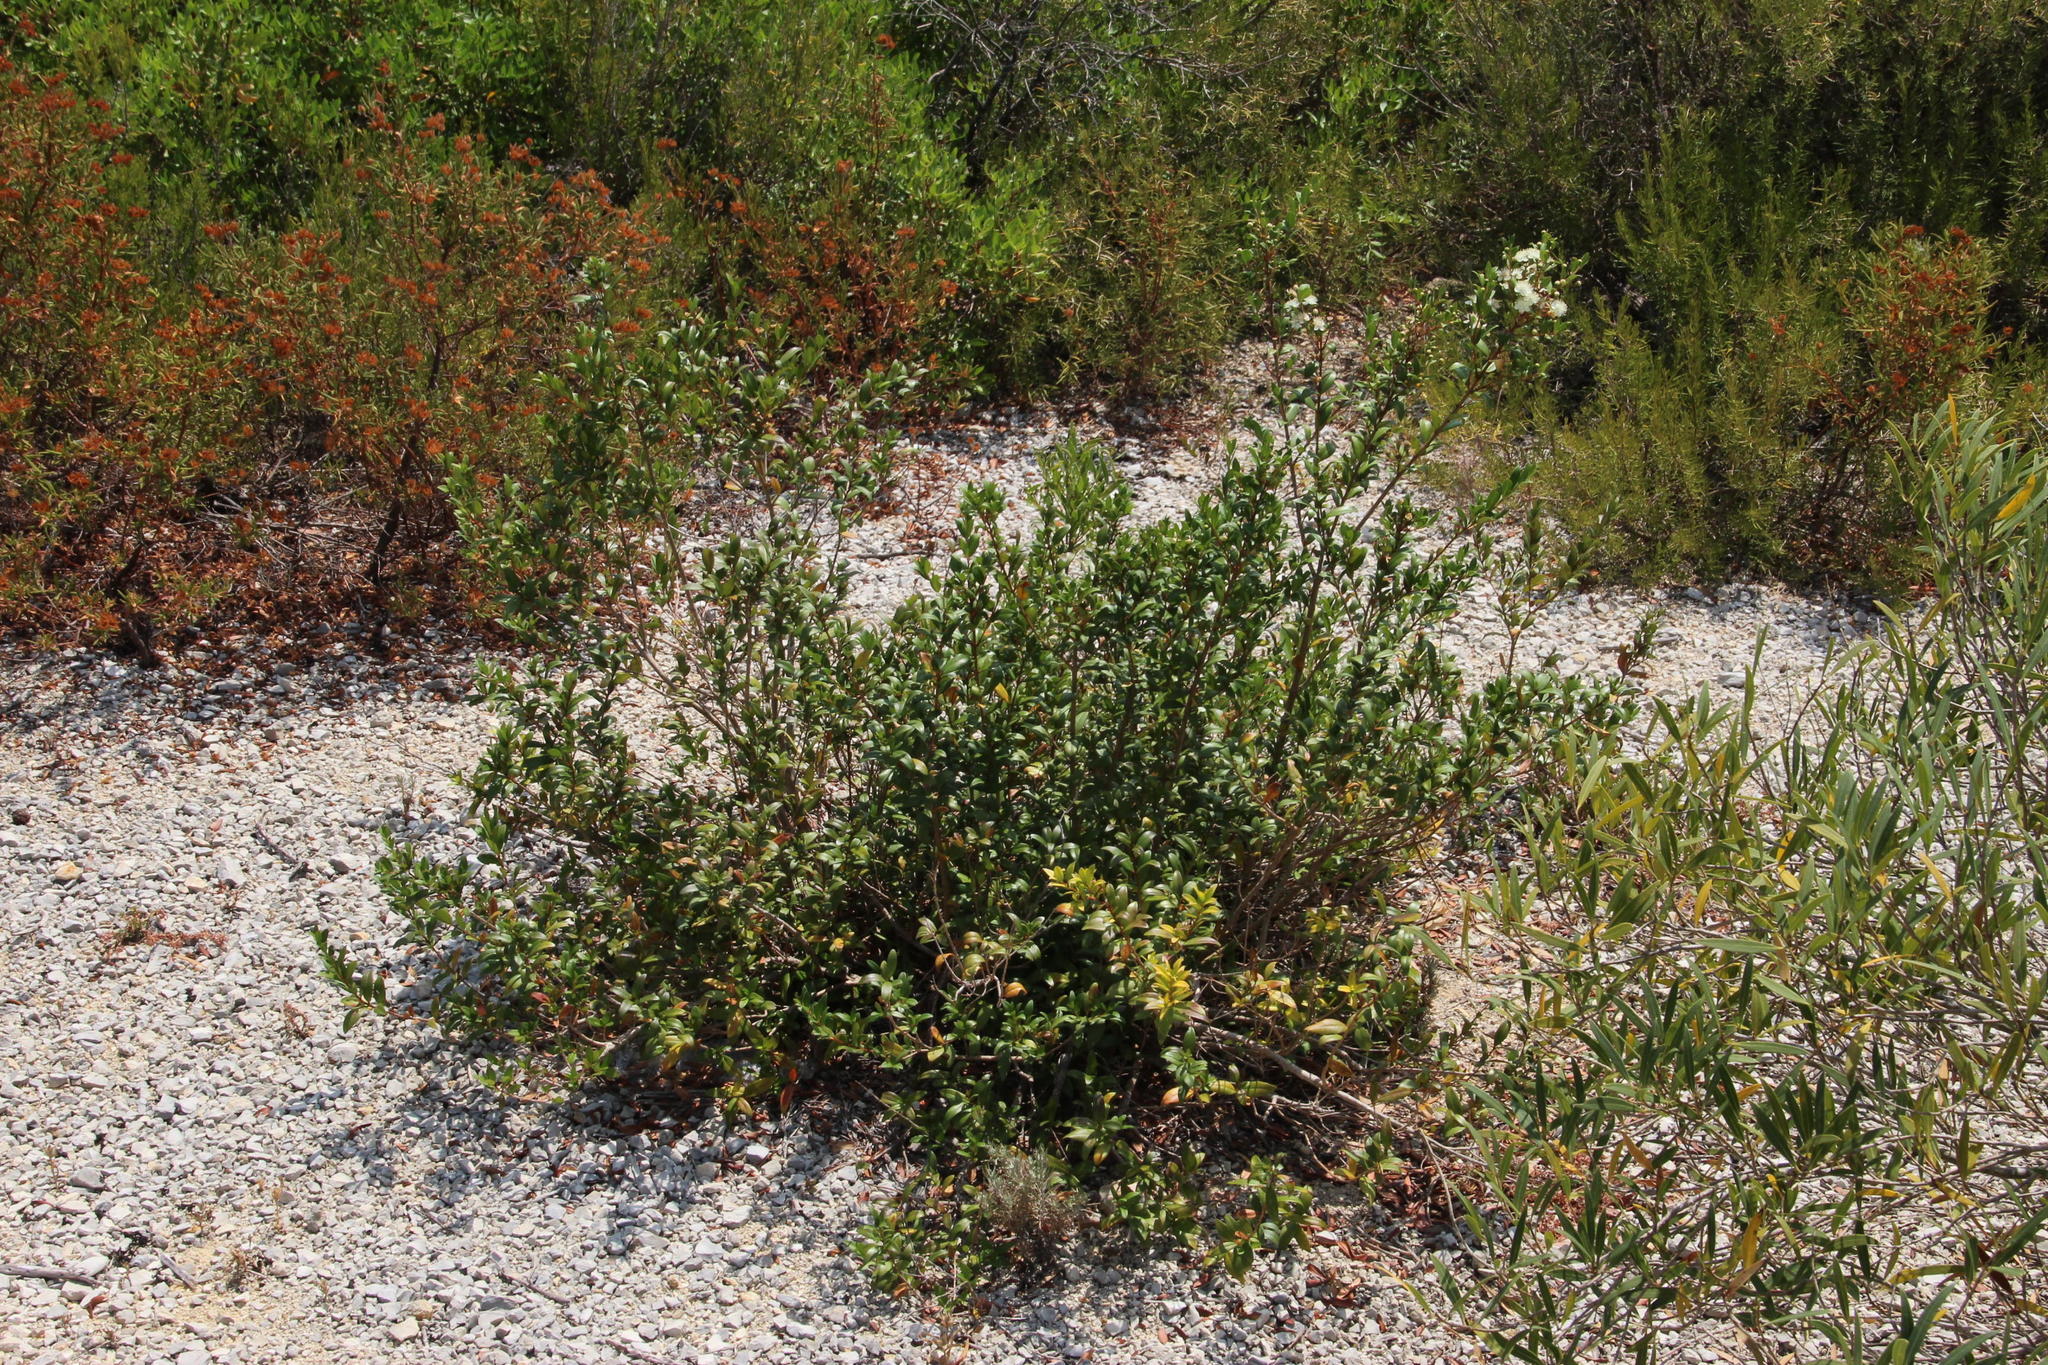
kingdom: Plantae
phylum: Tracheophyta
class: Magnoliopsida
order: Myrtales
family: Myrtaceae
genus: Myrtus
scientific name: Myrtus communis
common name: Myrtle
